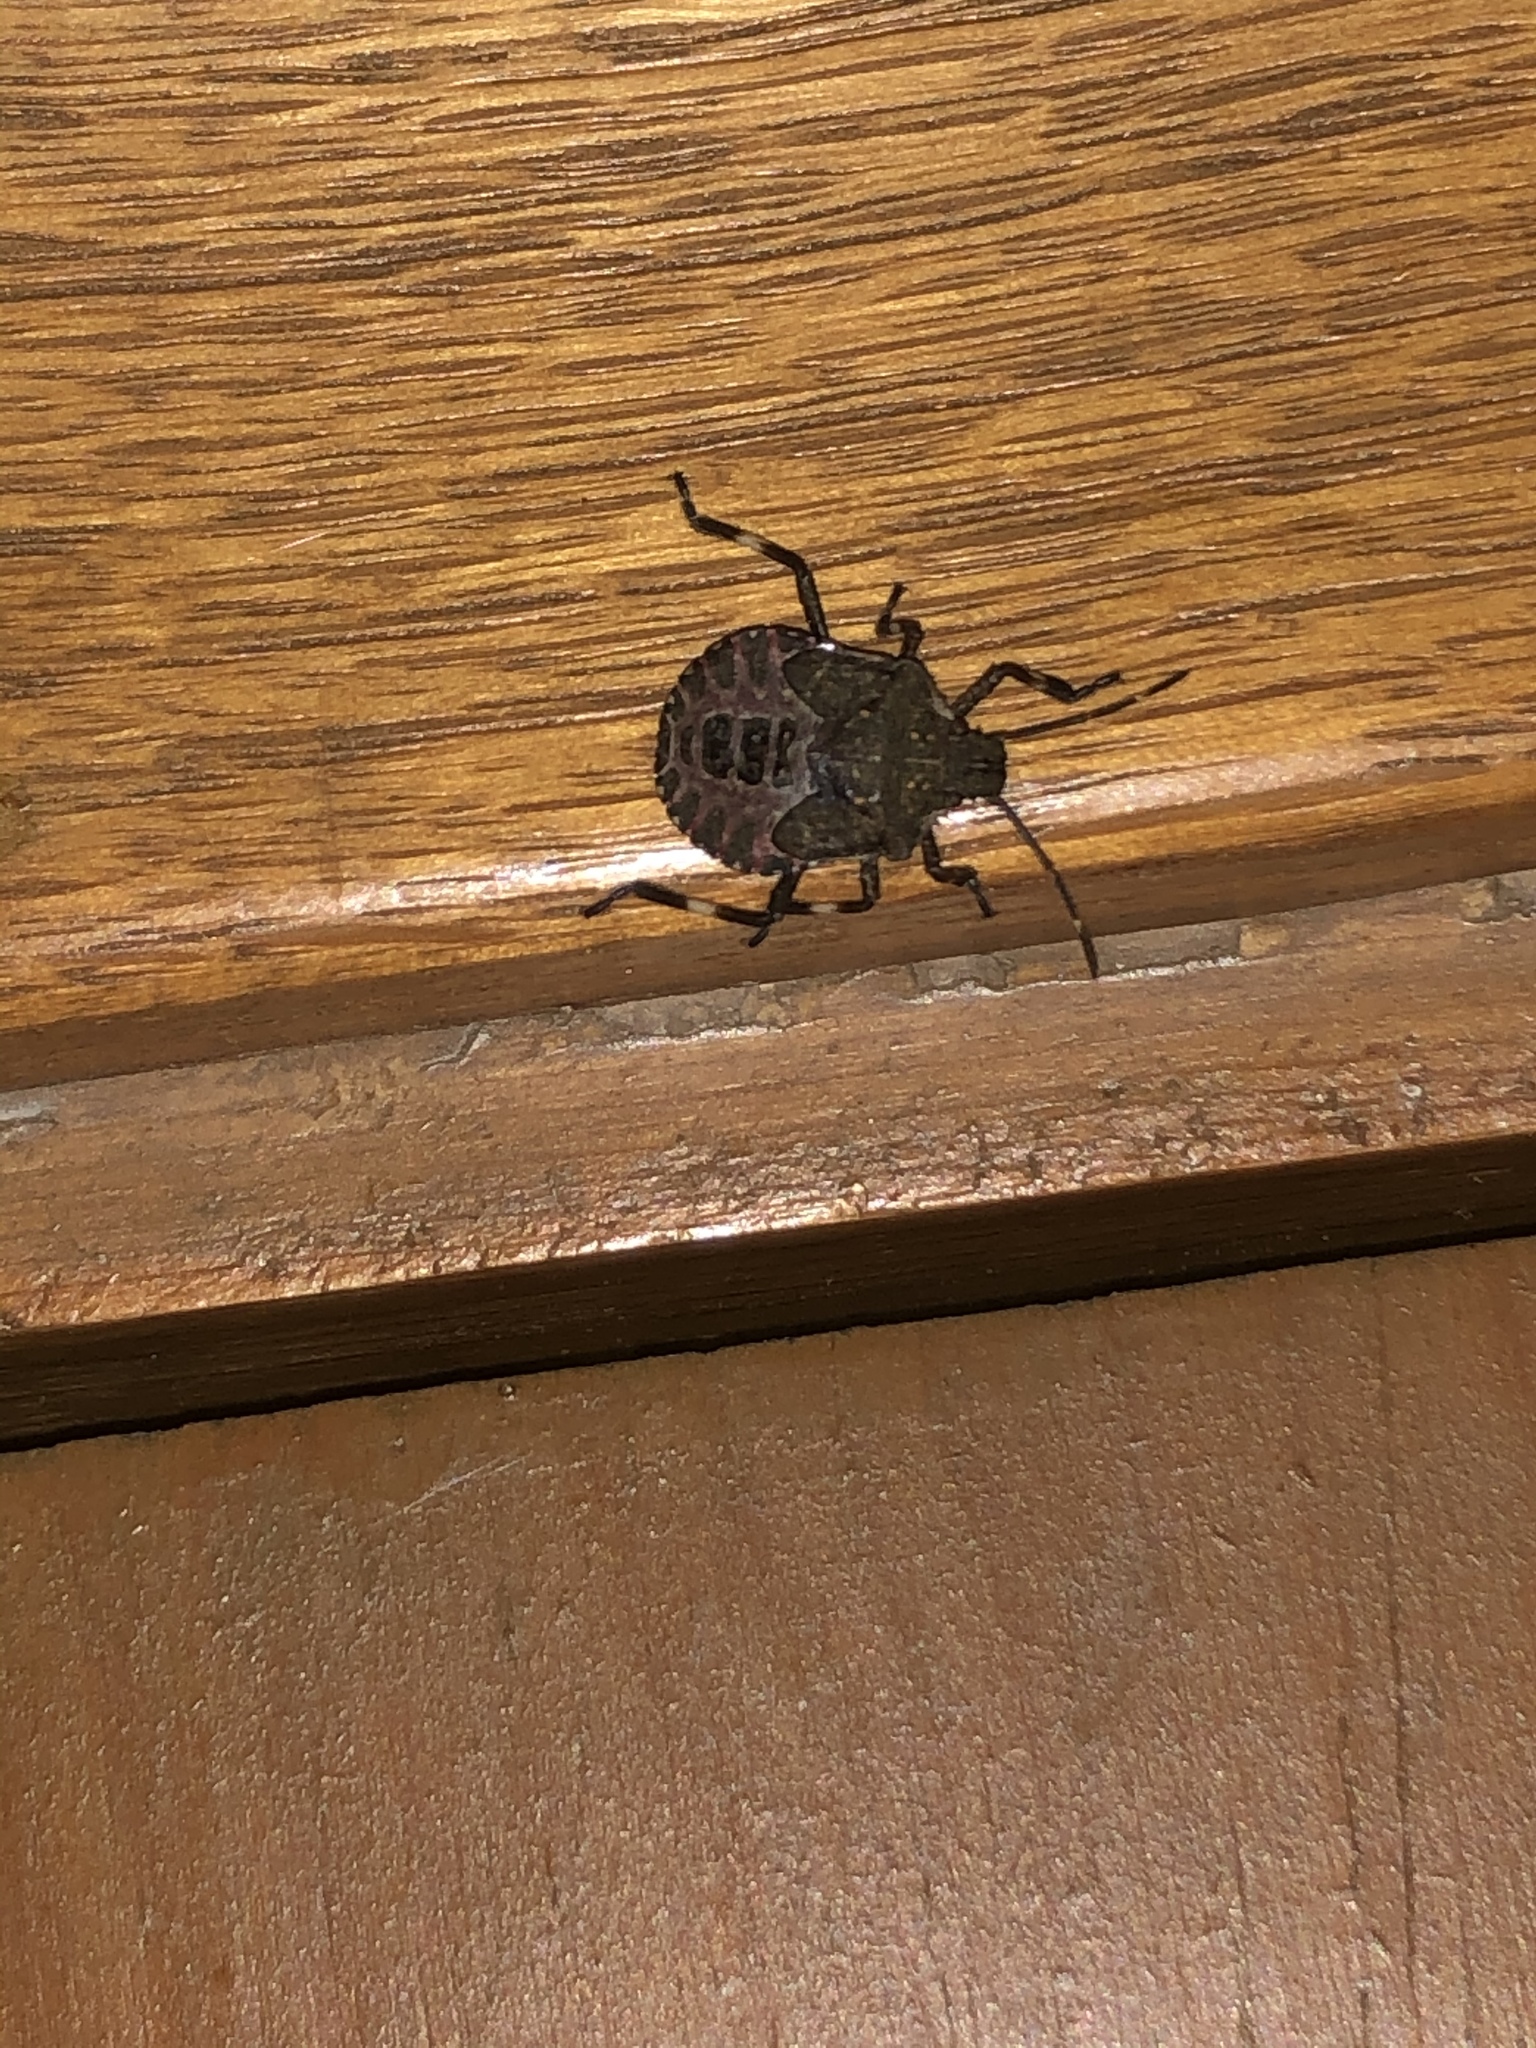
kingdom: Animalia
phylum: Arthropoda
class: Insecta
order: Hemiptera
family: Pentatomidae
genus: Halyomorpha
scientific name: Halyomorpha halys
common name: Brown marmorated stink bug
